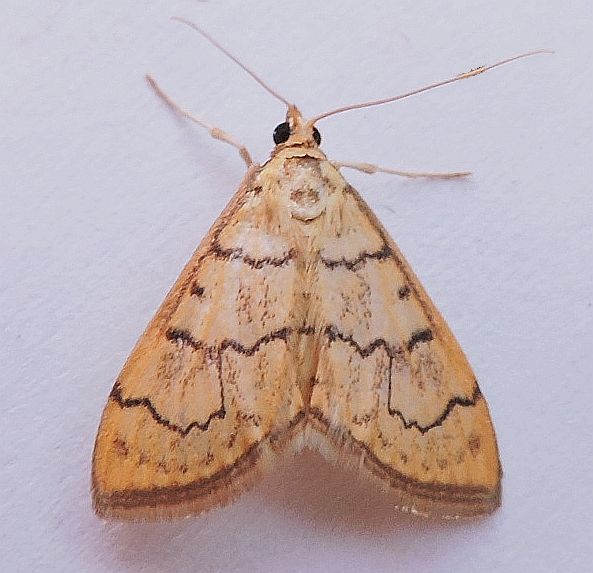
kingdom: Animalia
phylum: Arthropoda
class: Insecta
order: Lepidoptera
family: Crambidae
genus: Anania
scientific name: Anania labeculalis
